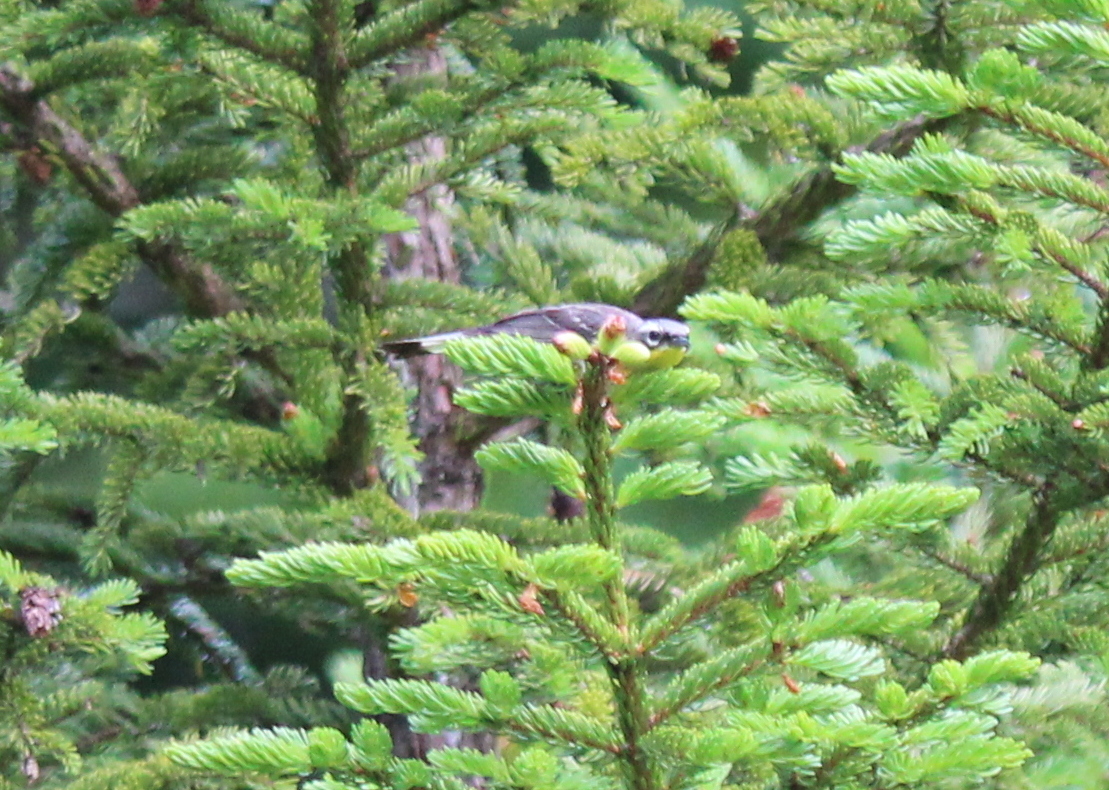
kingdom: Animalia
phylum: Chordata
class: Aves
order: Passeriformes
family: Parulidae
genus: Setophaga
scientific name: Setophaga magnolia
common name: Magnolia warbler
